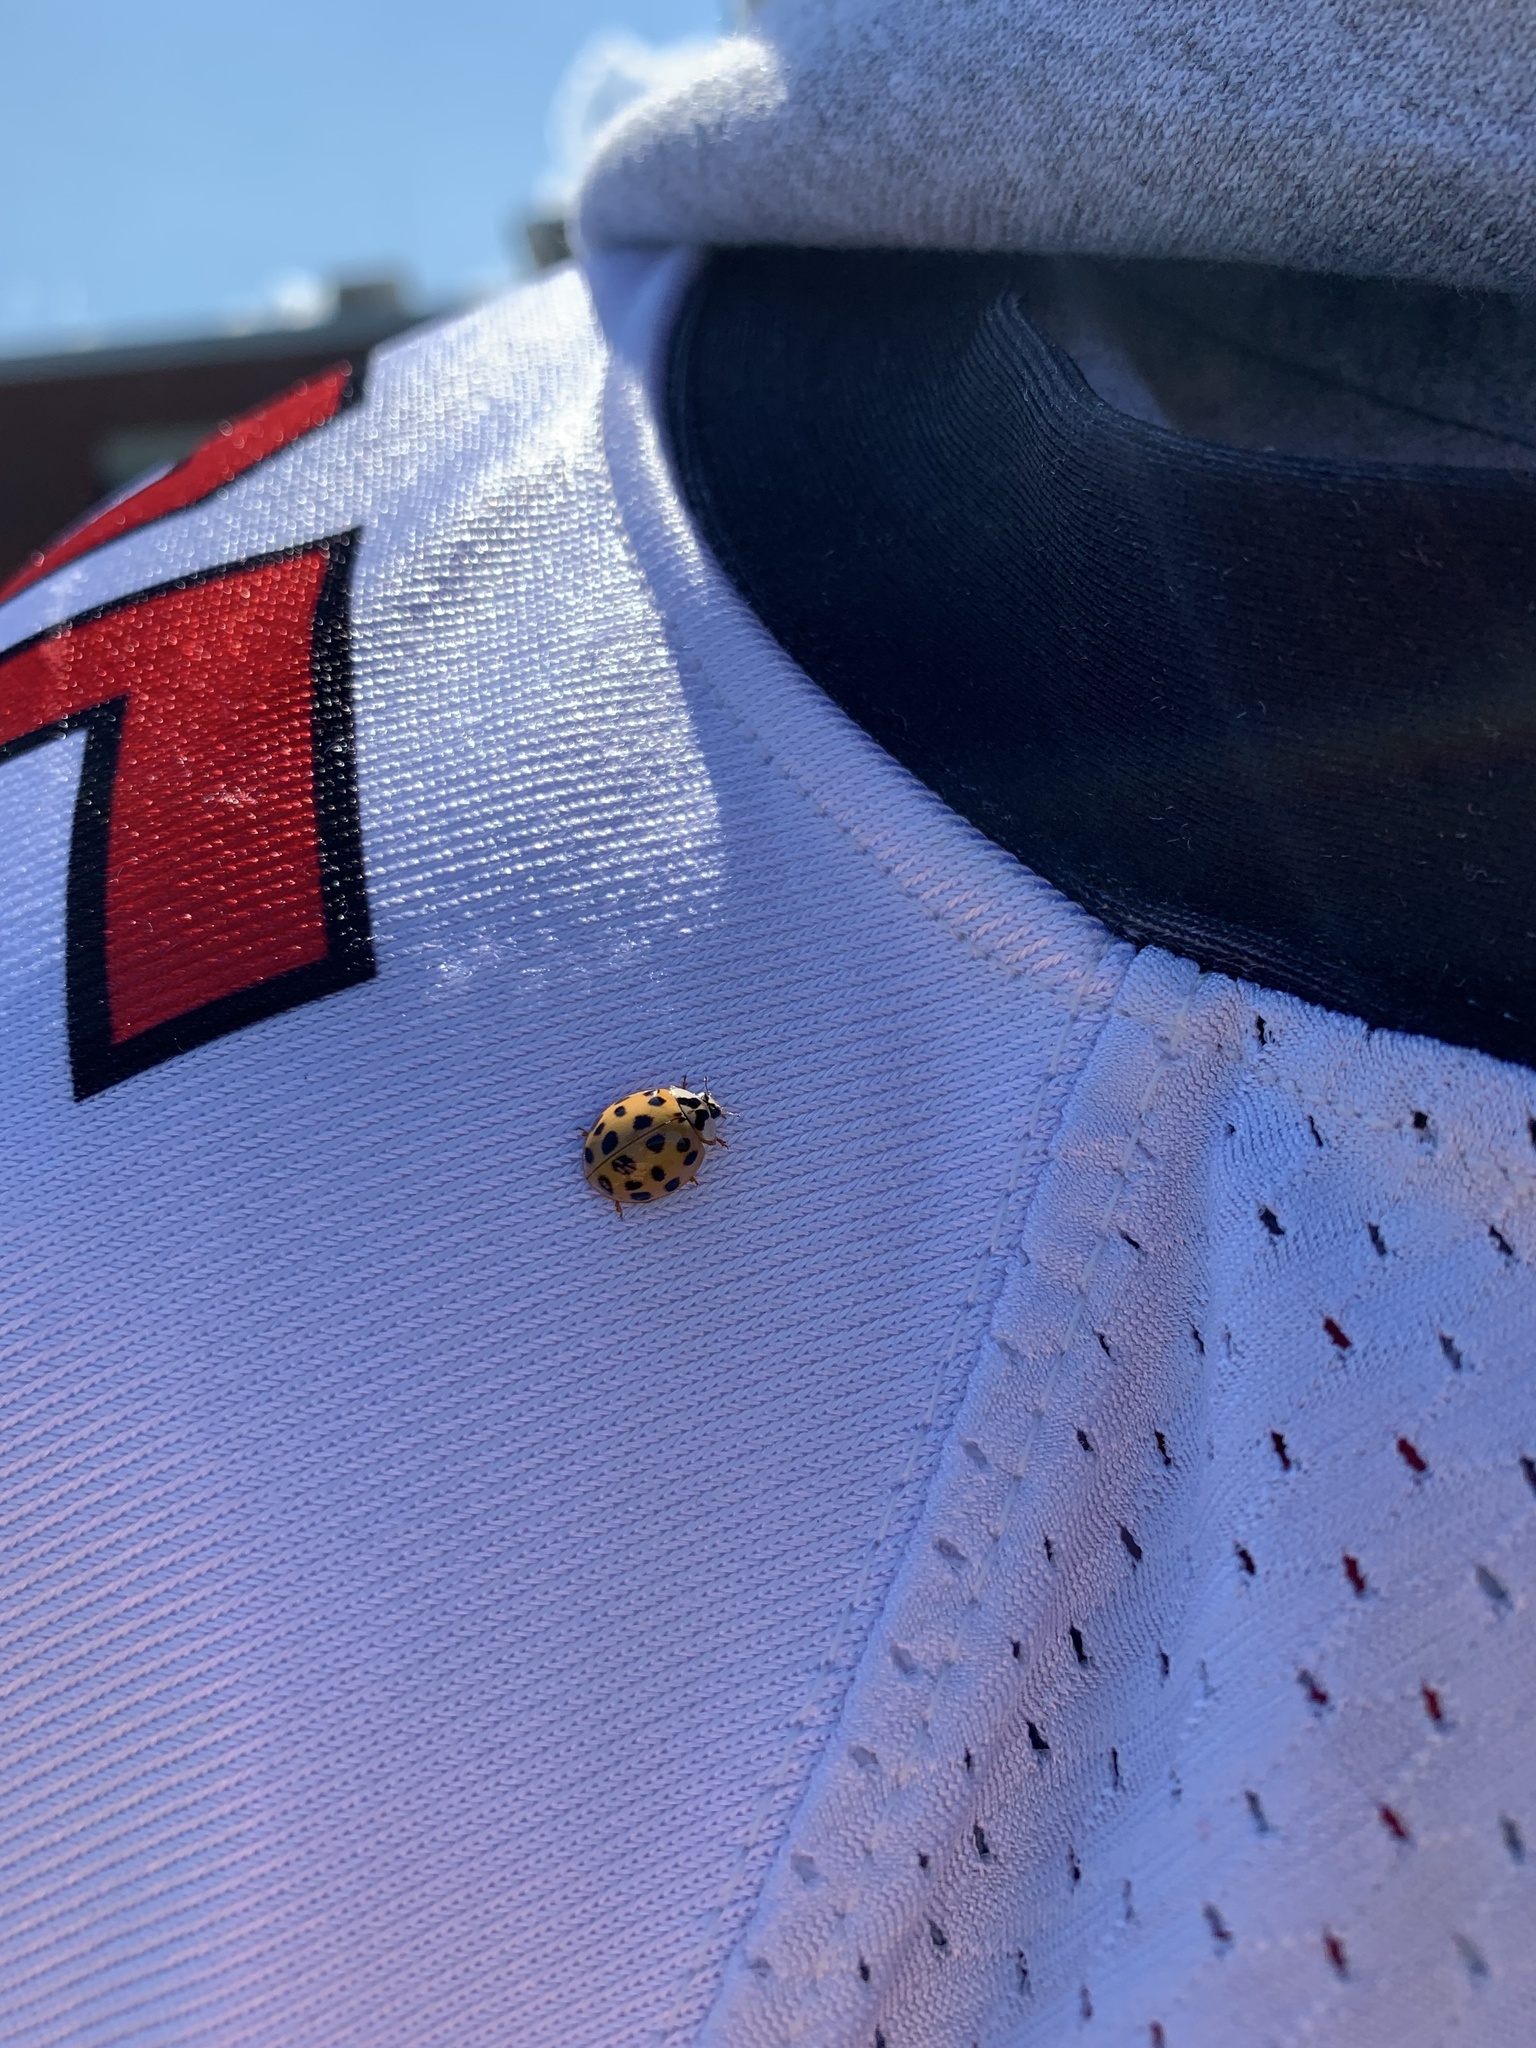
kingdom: Animalia
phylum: Arthropoda
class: Insecta
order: Coleoptera
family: Coccinellidae
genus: Harmonia
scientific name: Harmonia axyridis
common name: Harlequin ladybird
